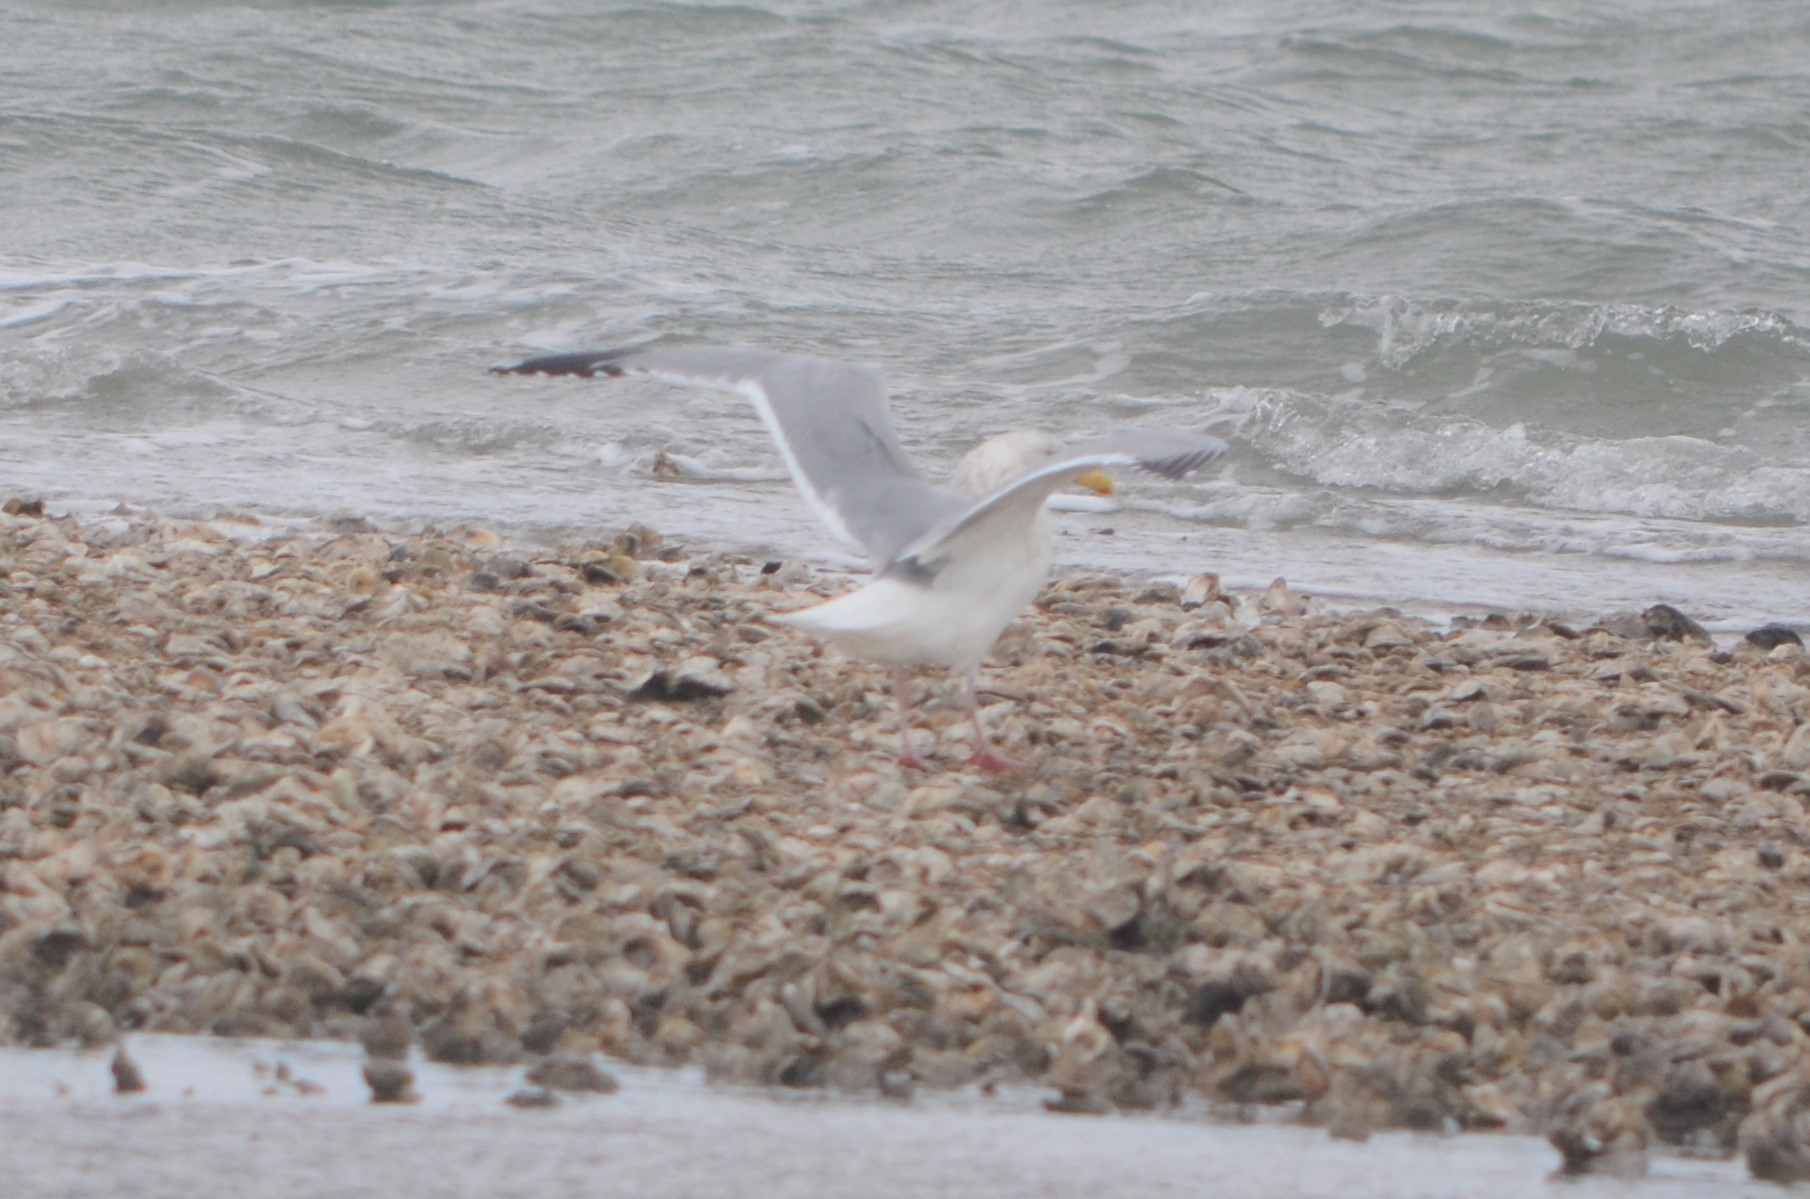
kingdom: Animalia
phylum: Chordata
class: Aves
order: Charadriiformes
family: Laridae
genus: Larus
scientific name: Larus argentatus
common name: Herring gull
